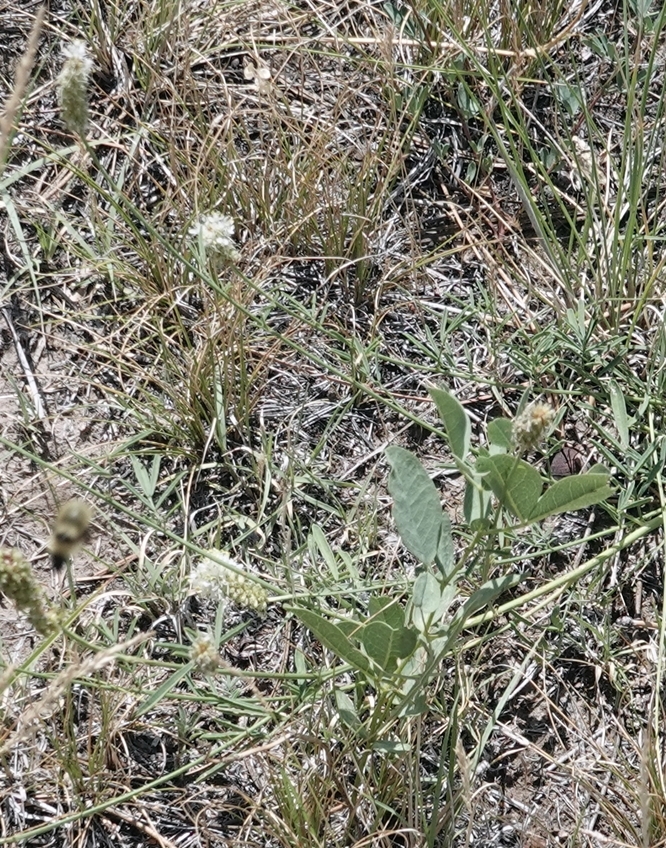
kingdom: Plantae
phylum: Tracheophyta
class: Magnoliopsida
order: Fabales
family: Fabaceae
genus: Dalea
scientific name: Dalea candida
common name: White prairie-clover
